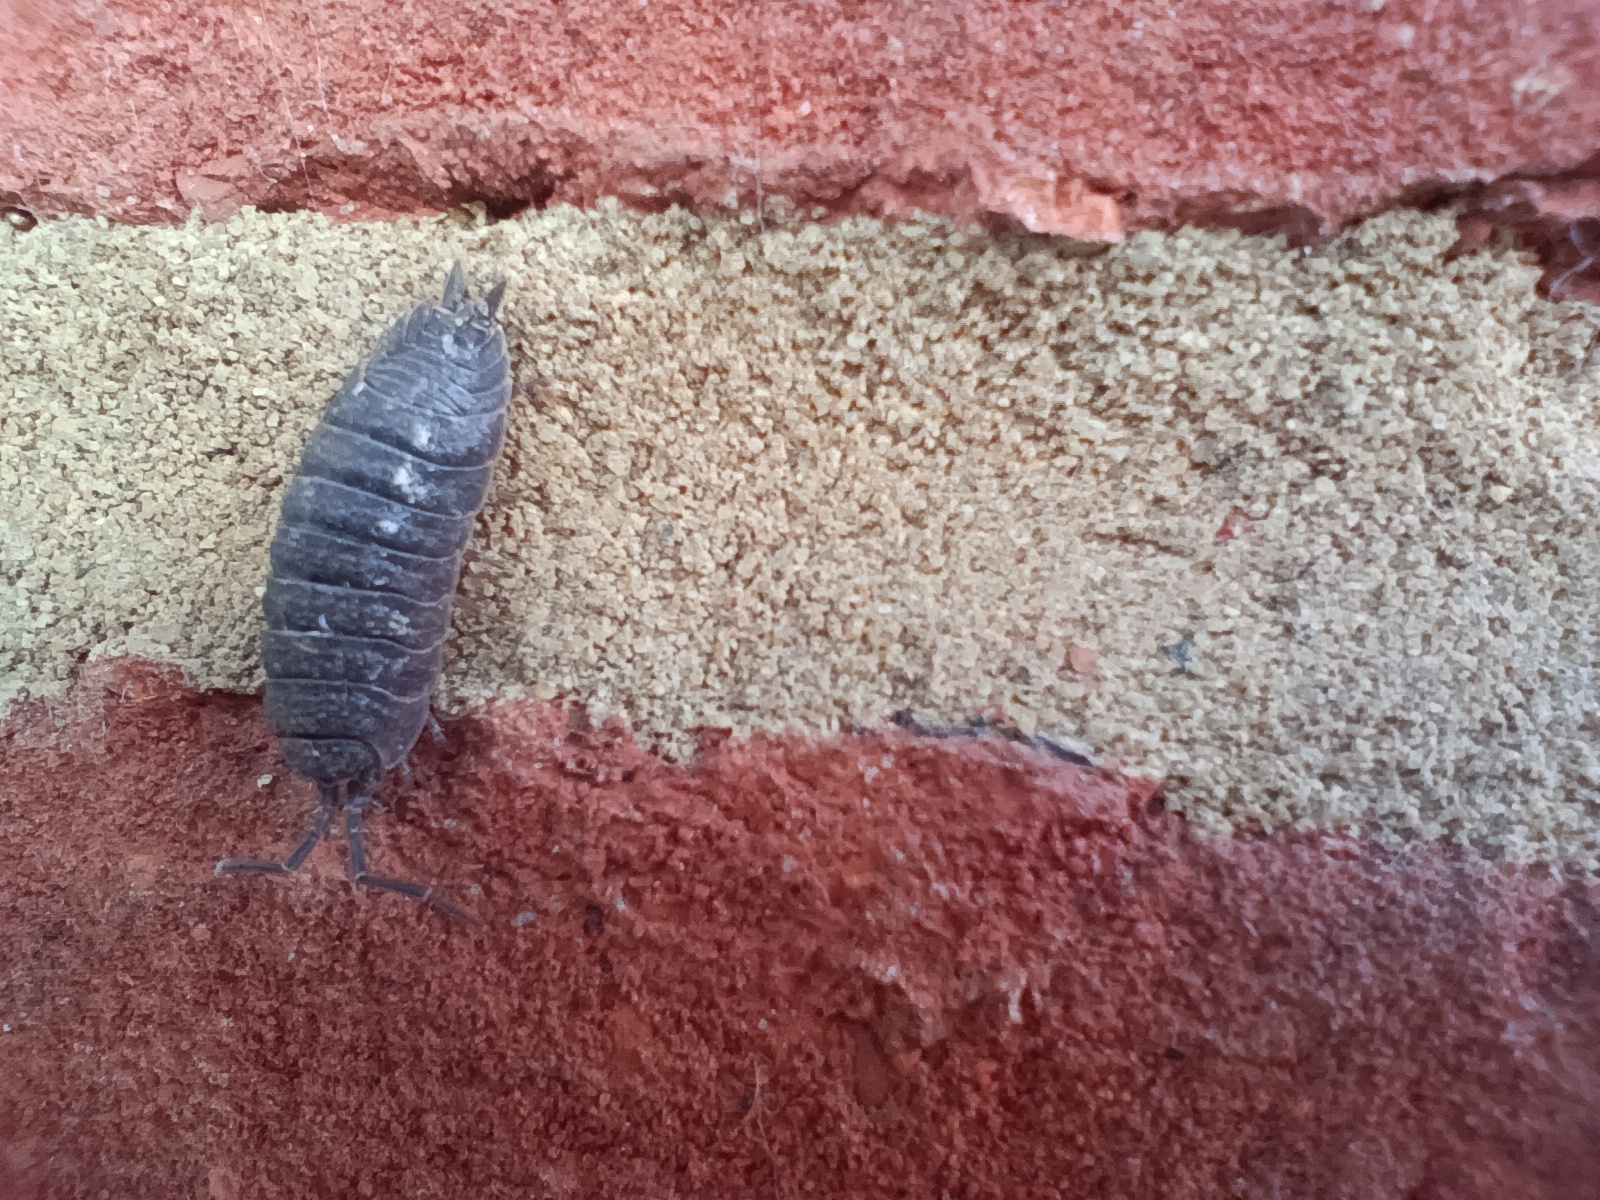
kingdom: Animalia
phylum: Arthropoda
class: Malacostraca
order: Isopoda
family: Porcellionidae
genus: Porcellio
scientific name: Porcellio scaber
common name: Common rough woodlouse
